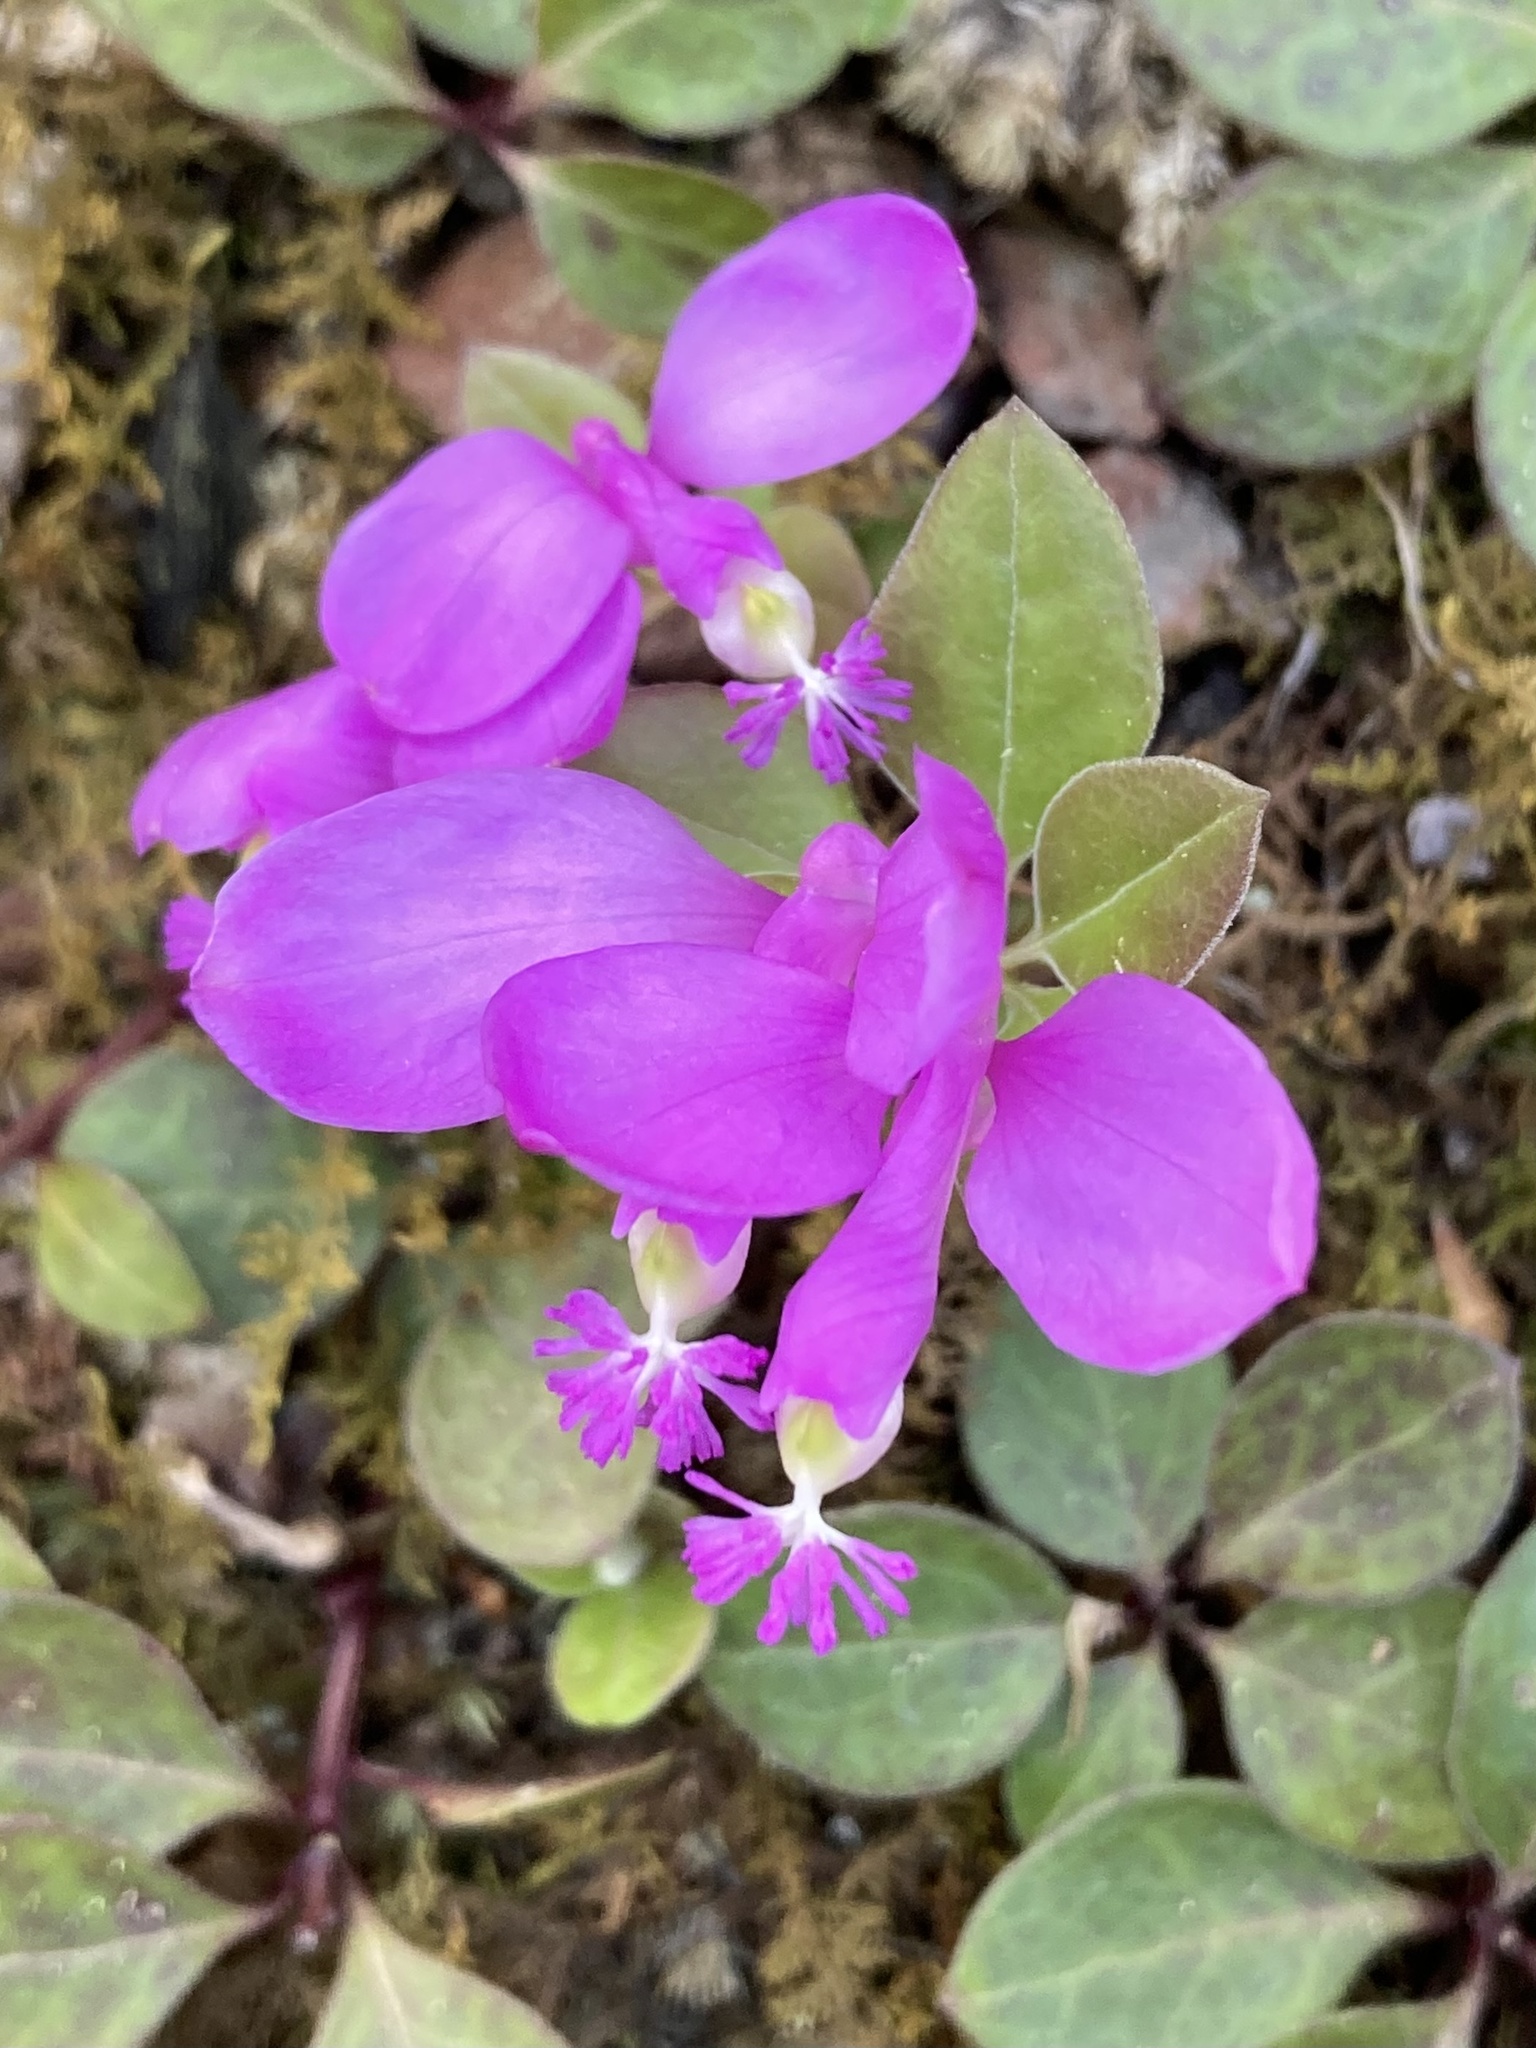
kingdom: Plantae
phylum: Tracheophyta
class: Magnoliopsida
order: Fabales
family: Polygalaceae
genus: Polygaloides
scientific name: Polygaloides paucifolia
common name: Bird-on-the-wing
